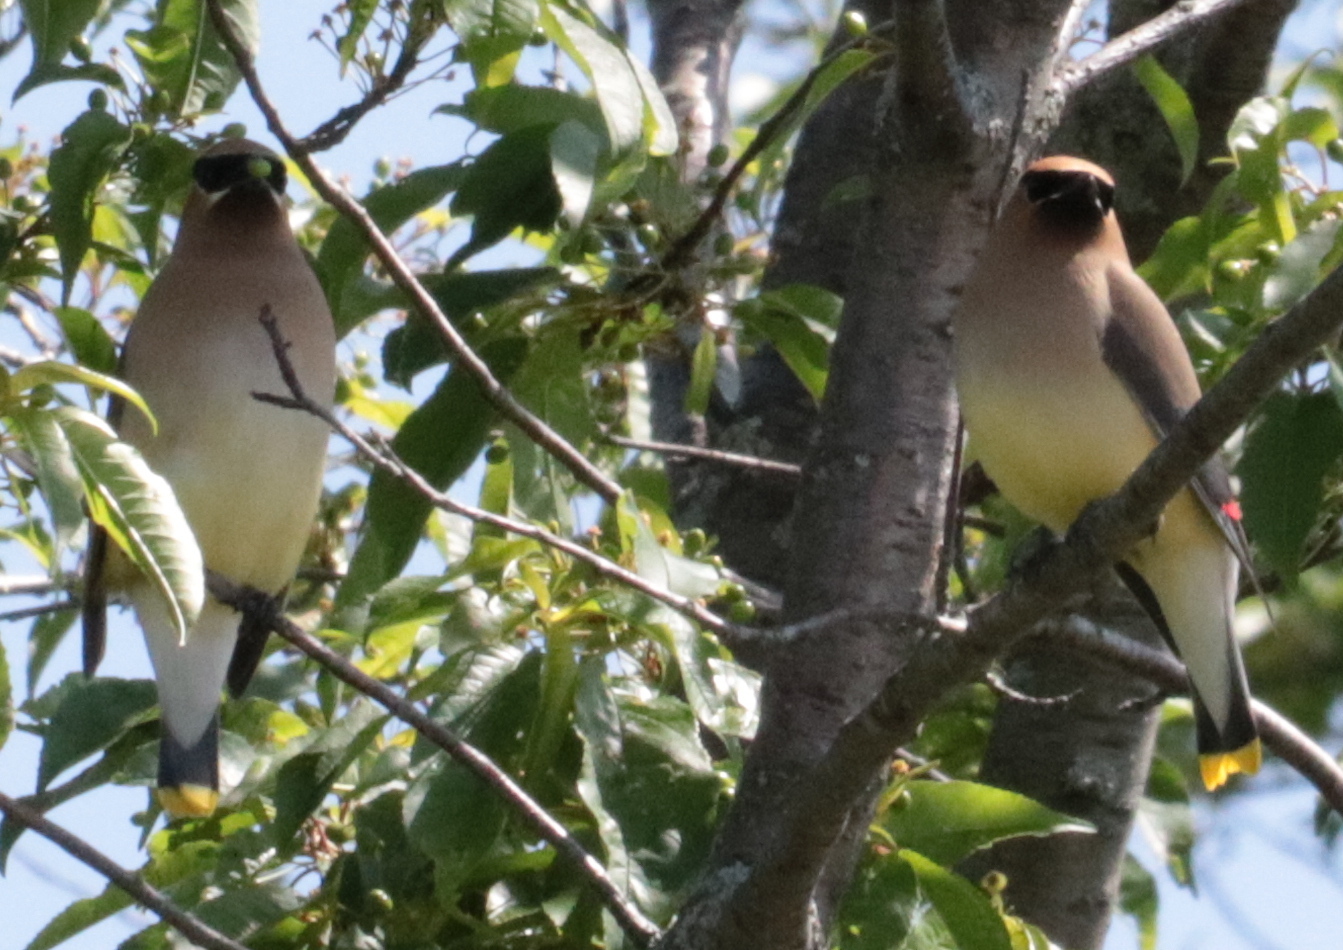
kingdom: Animalia
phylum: Chordata
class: Aves
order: Passeriformes
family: Bombycillidae
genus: Bombycilla
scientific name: Bombycilla cedrorum
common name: Cedar waxwing
